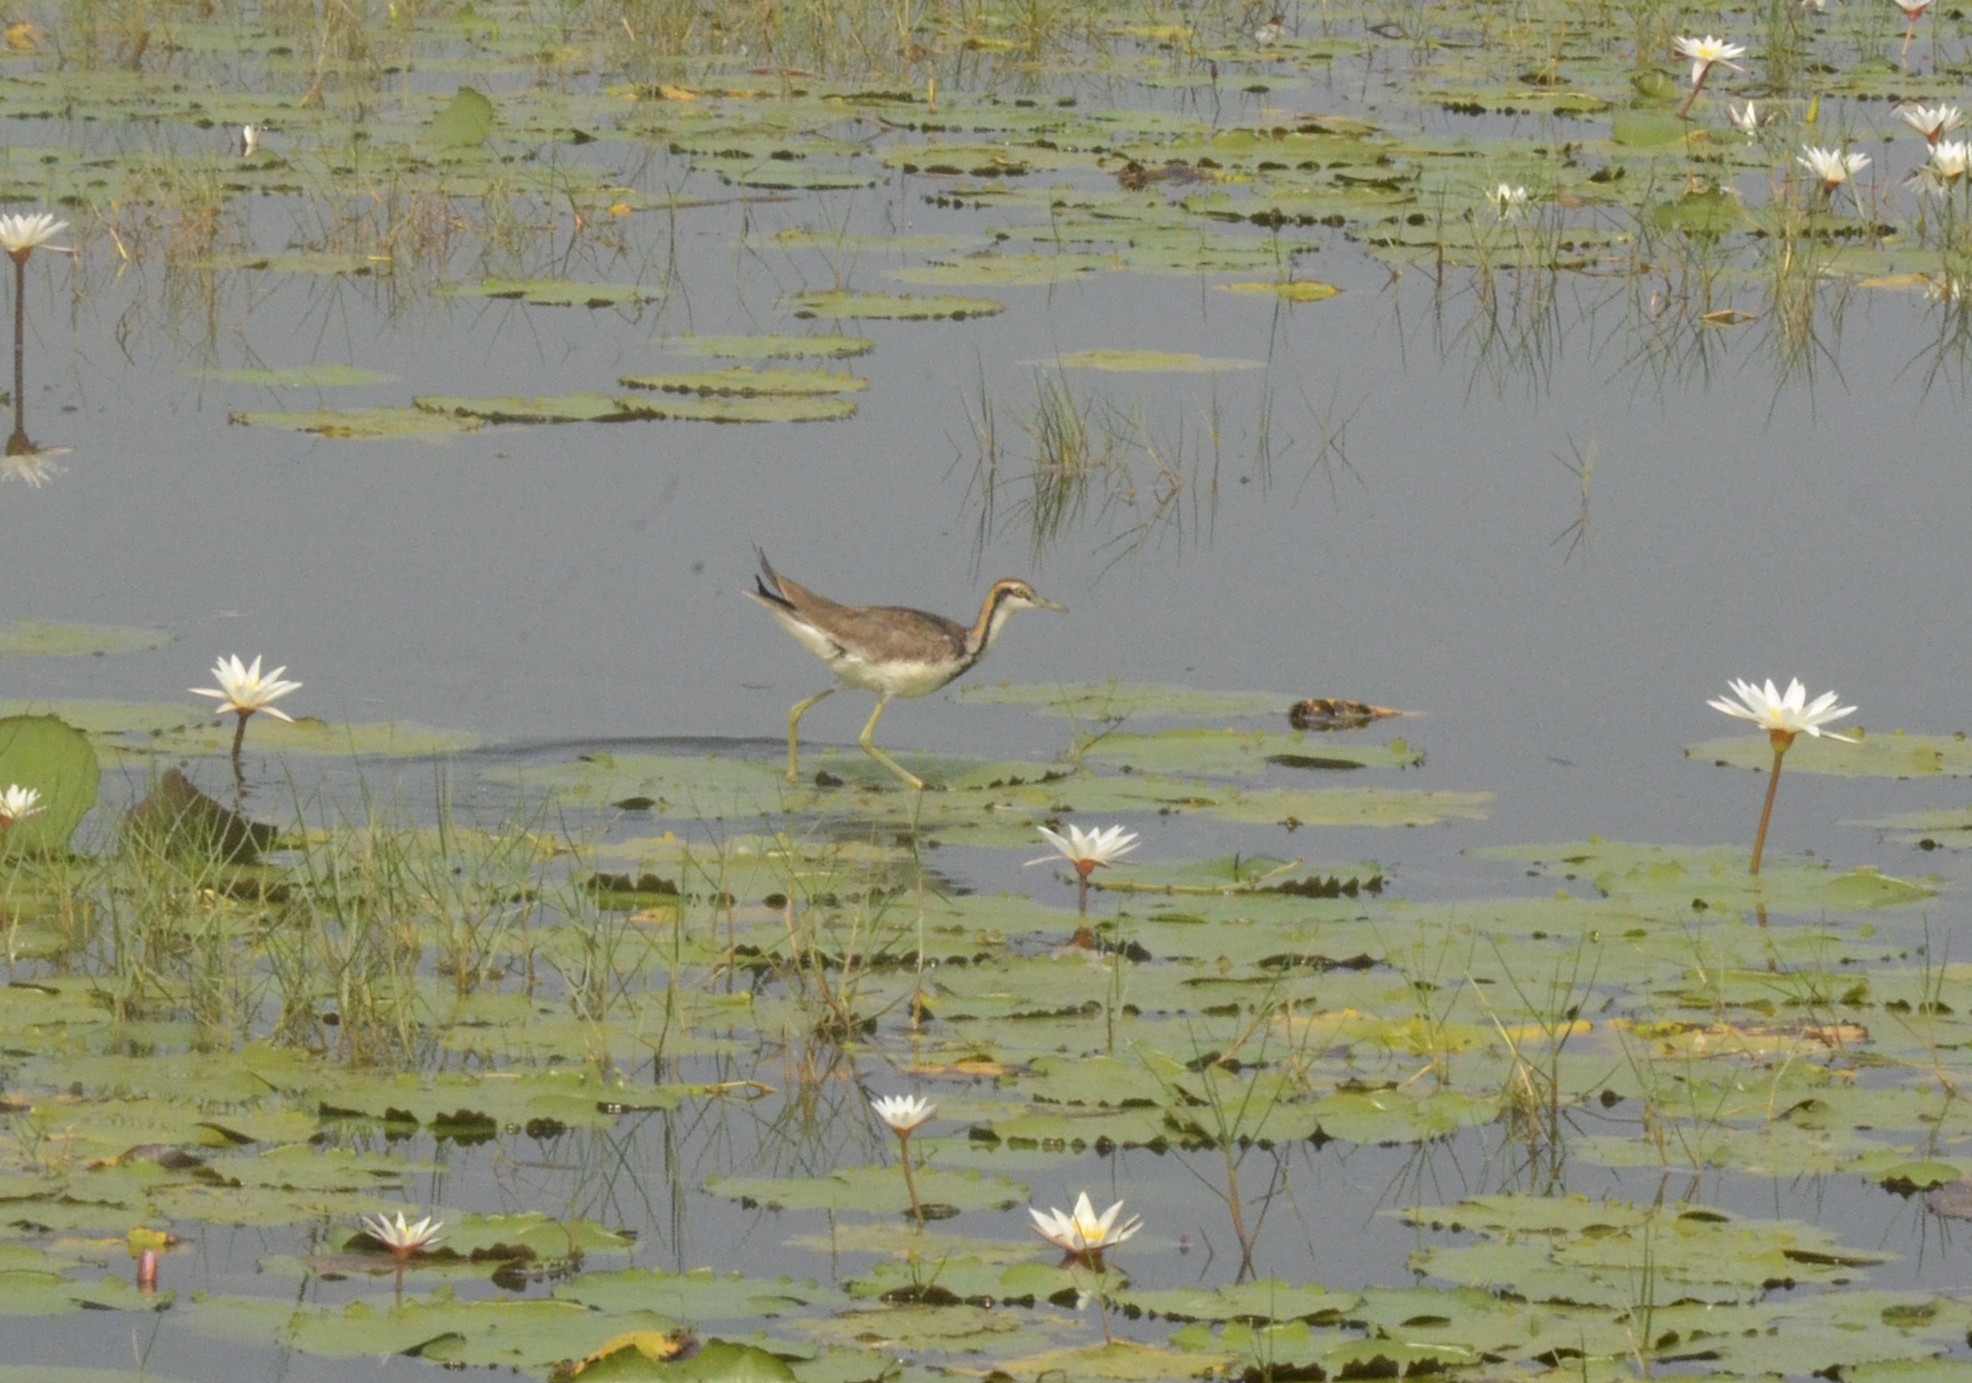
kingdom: Animalia
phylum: Chordata
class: Aves
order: Charadriiformes
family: Jacanidae
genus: Hydrophasianus
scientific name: Hydrophasianus chirurgus
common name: Pheasant-tailed jacana
